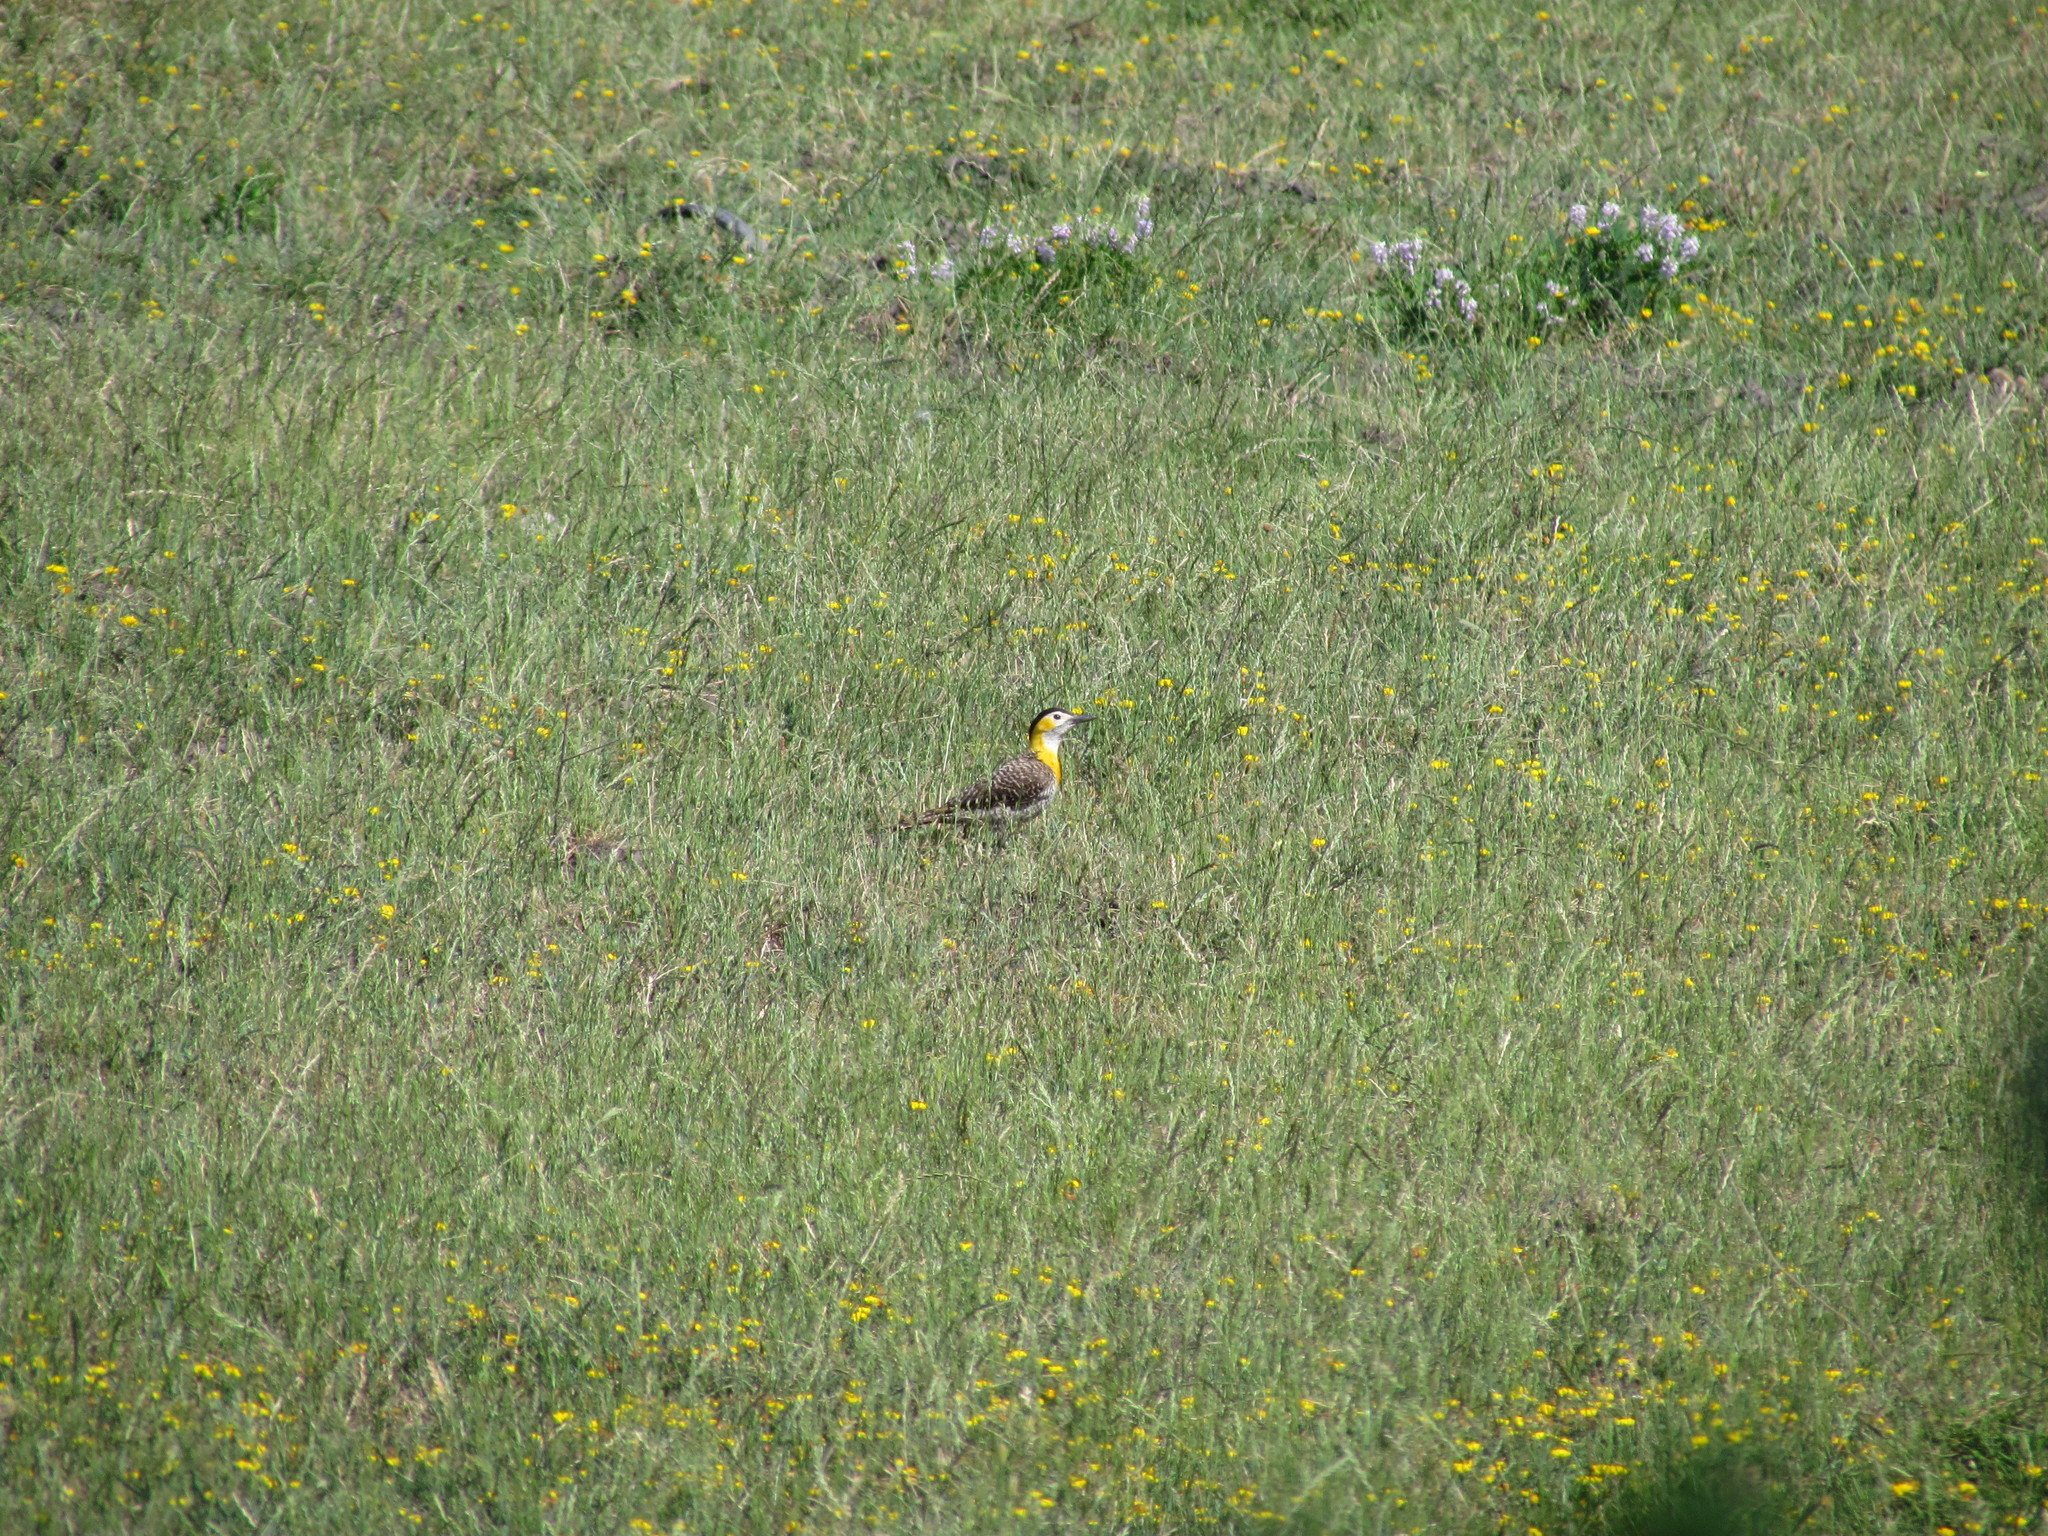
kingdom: Animalia
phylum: Chordata
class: Aves
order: Piciformes
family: Picidae
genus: Colaptes
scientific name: Colaptes campestris
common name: Campo flicker
